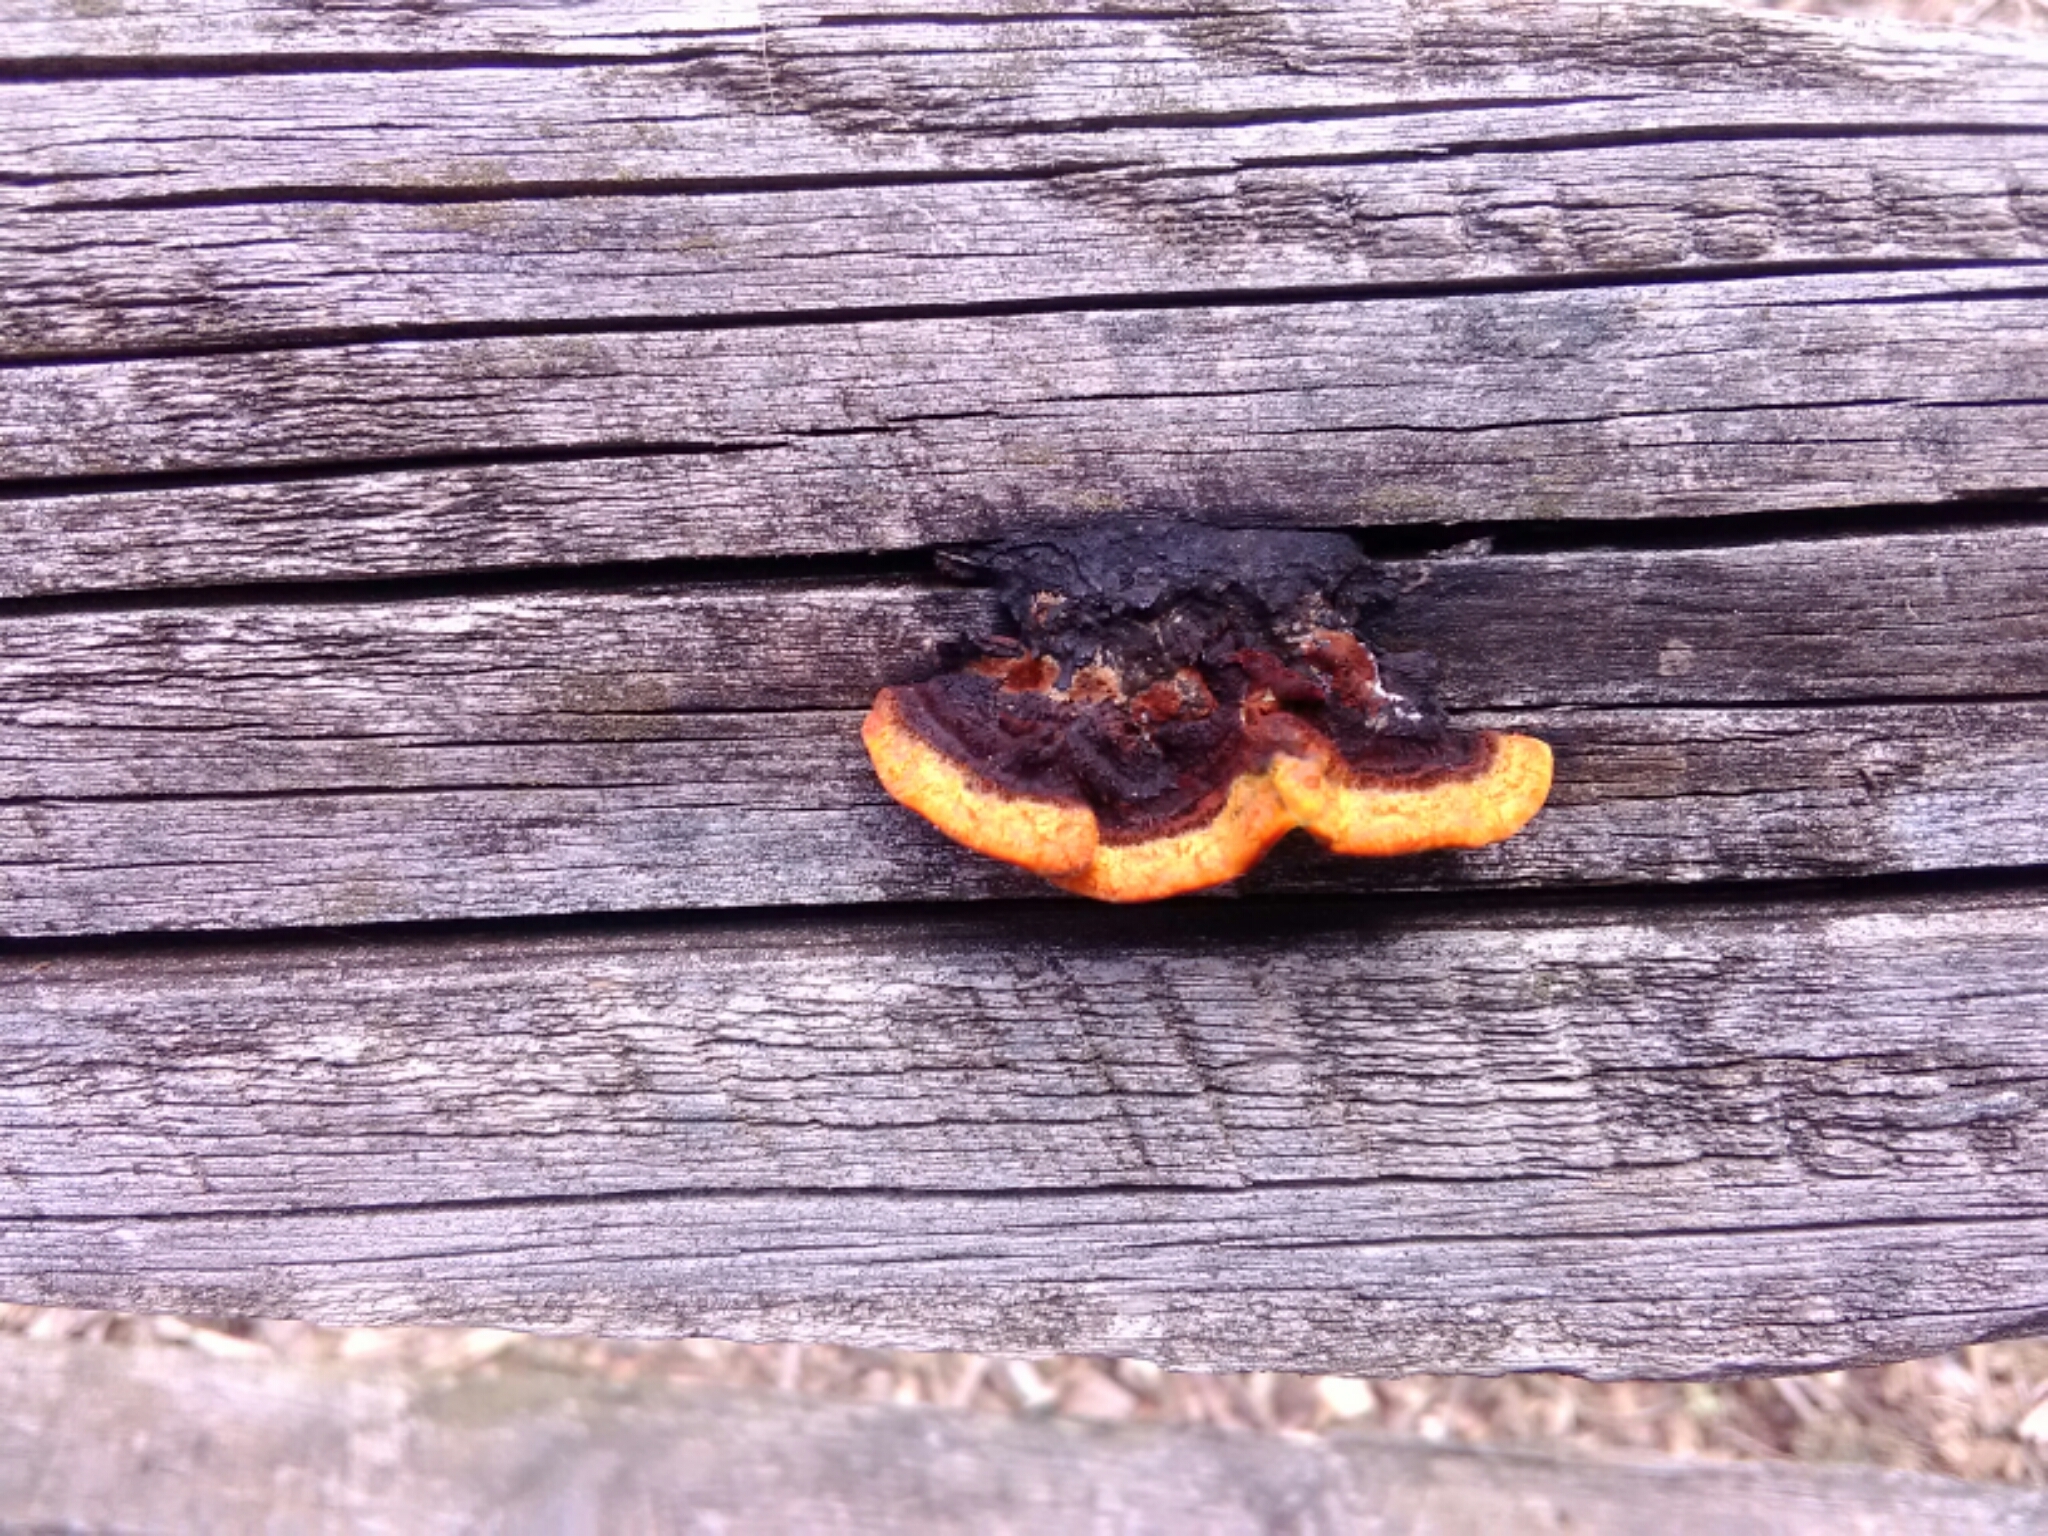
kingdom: Fungi
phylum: Basidiomycota
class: Agaricomycetes
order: Gloeophyllales
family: Gloeophyllaceae
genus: Gloeophyllum
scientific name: Gloeophyllum sepiarium
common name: Conifer mazegill
